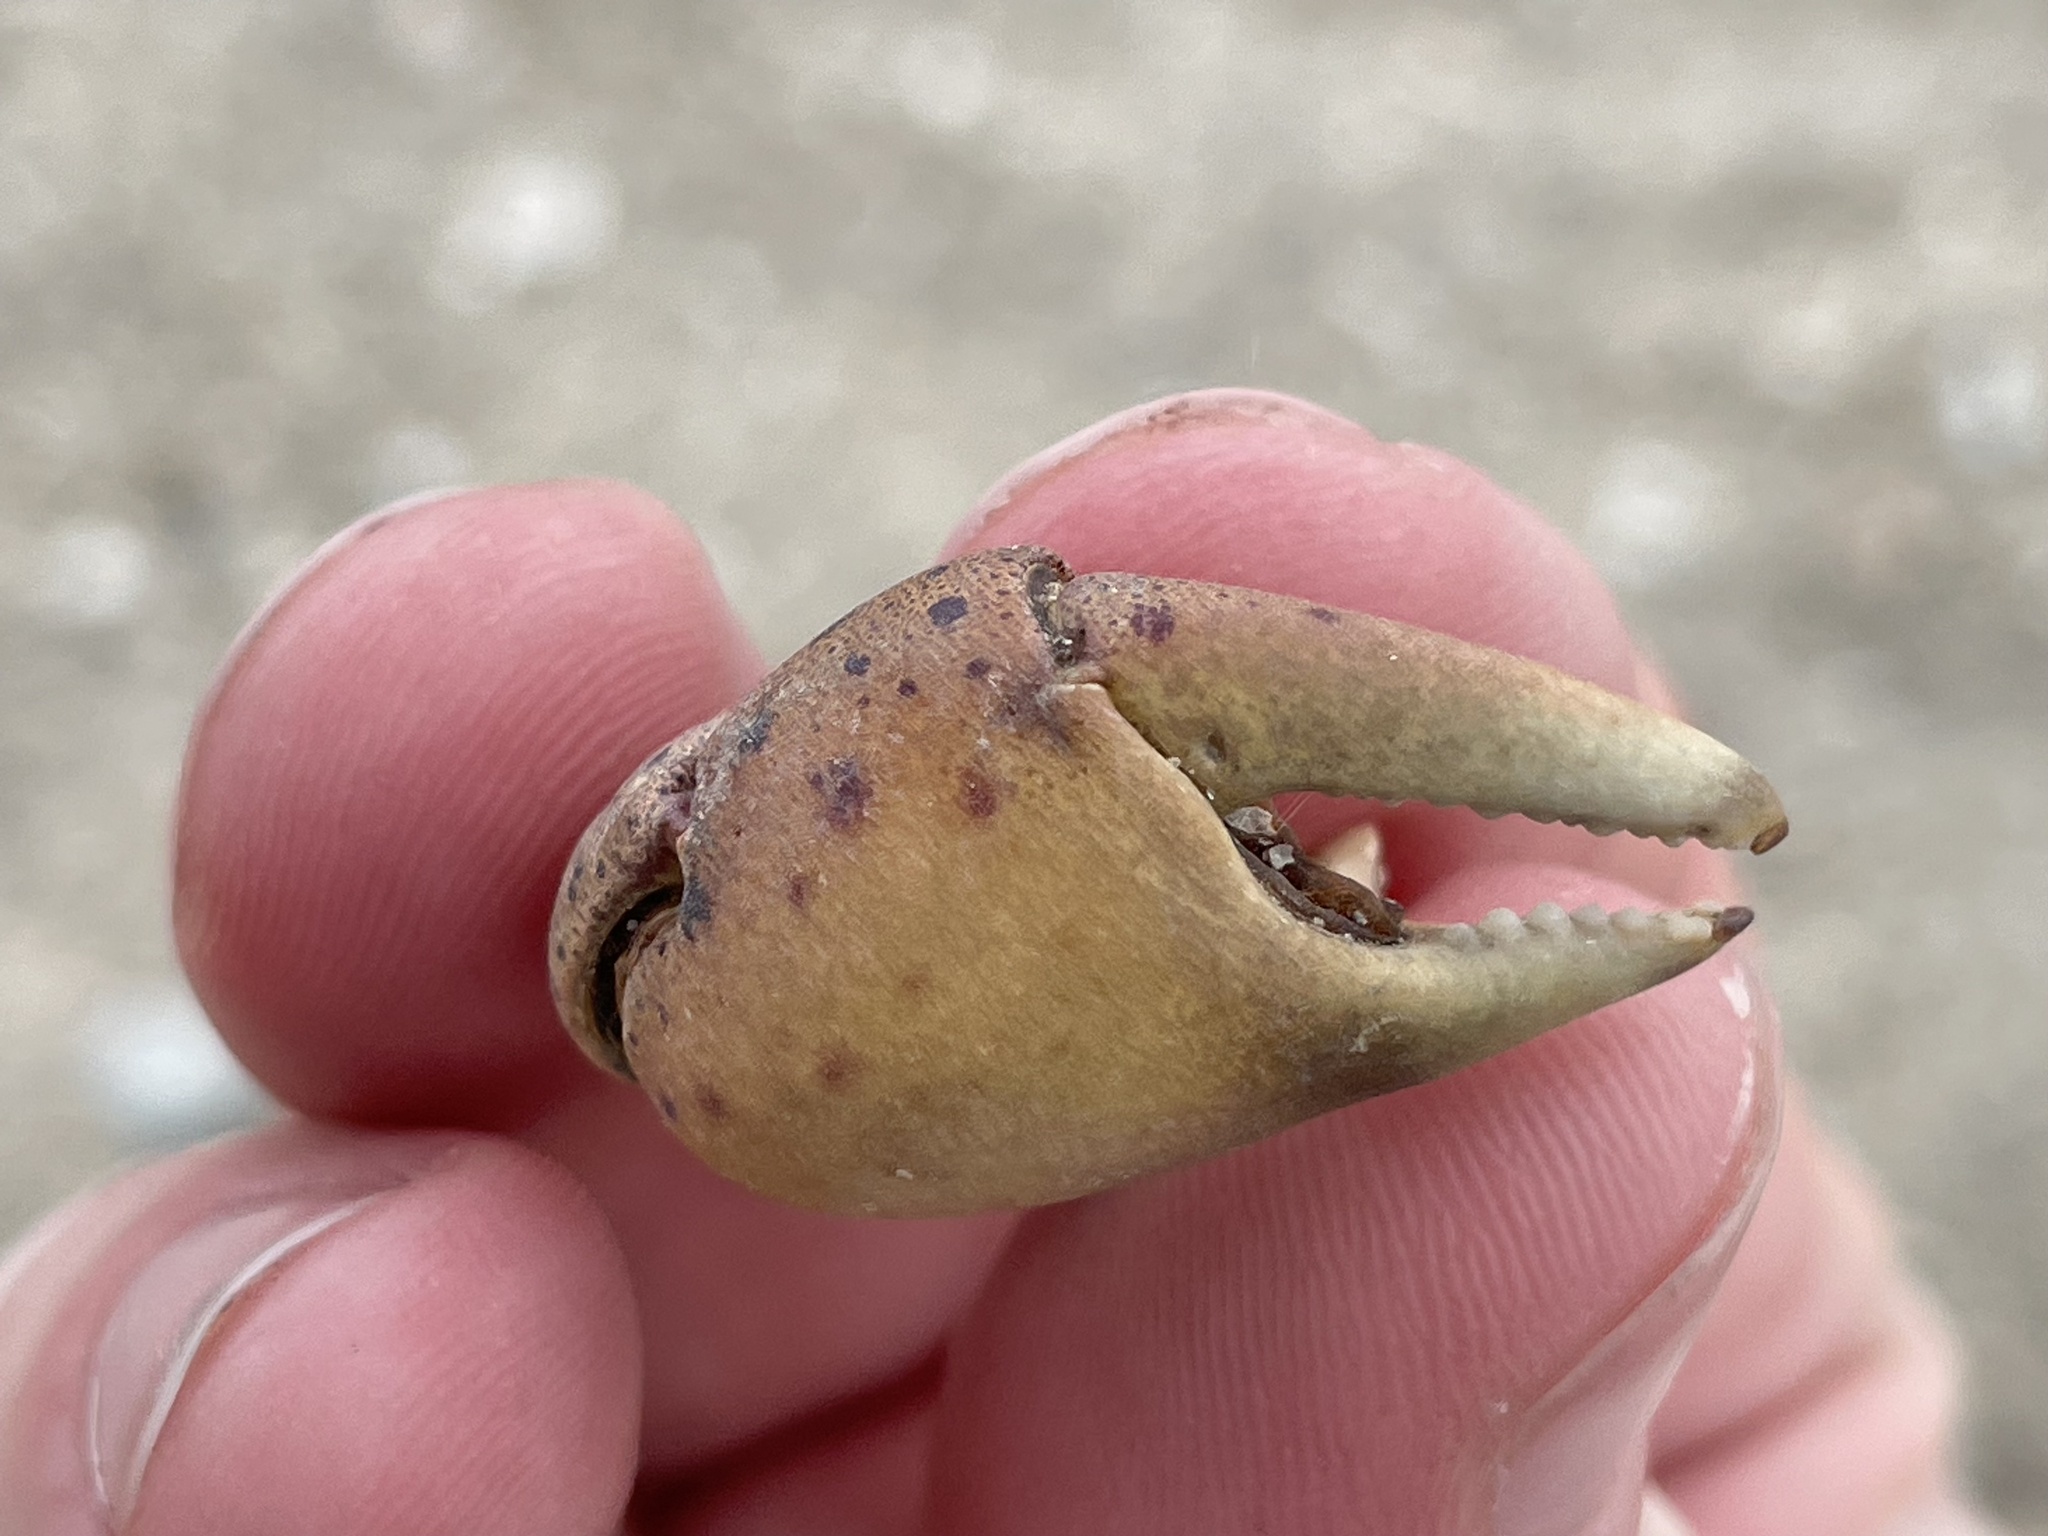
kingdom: Animalia
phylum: Arthropoda
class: Malacostraca
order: Decapoda
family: Varunidae
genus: Hemigrapsus
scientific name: Hemigrapsus sanguineus
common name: Asian shore crab
